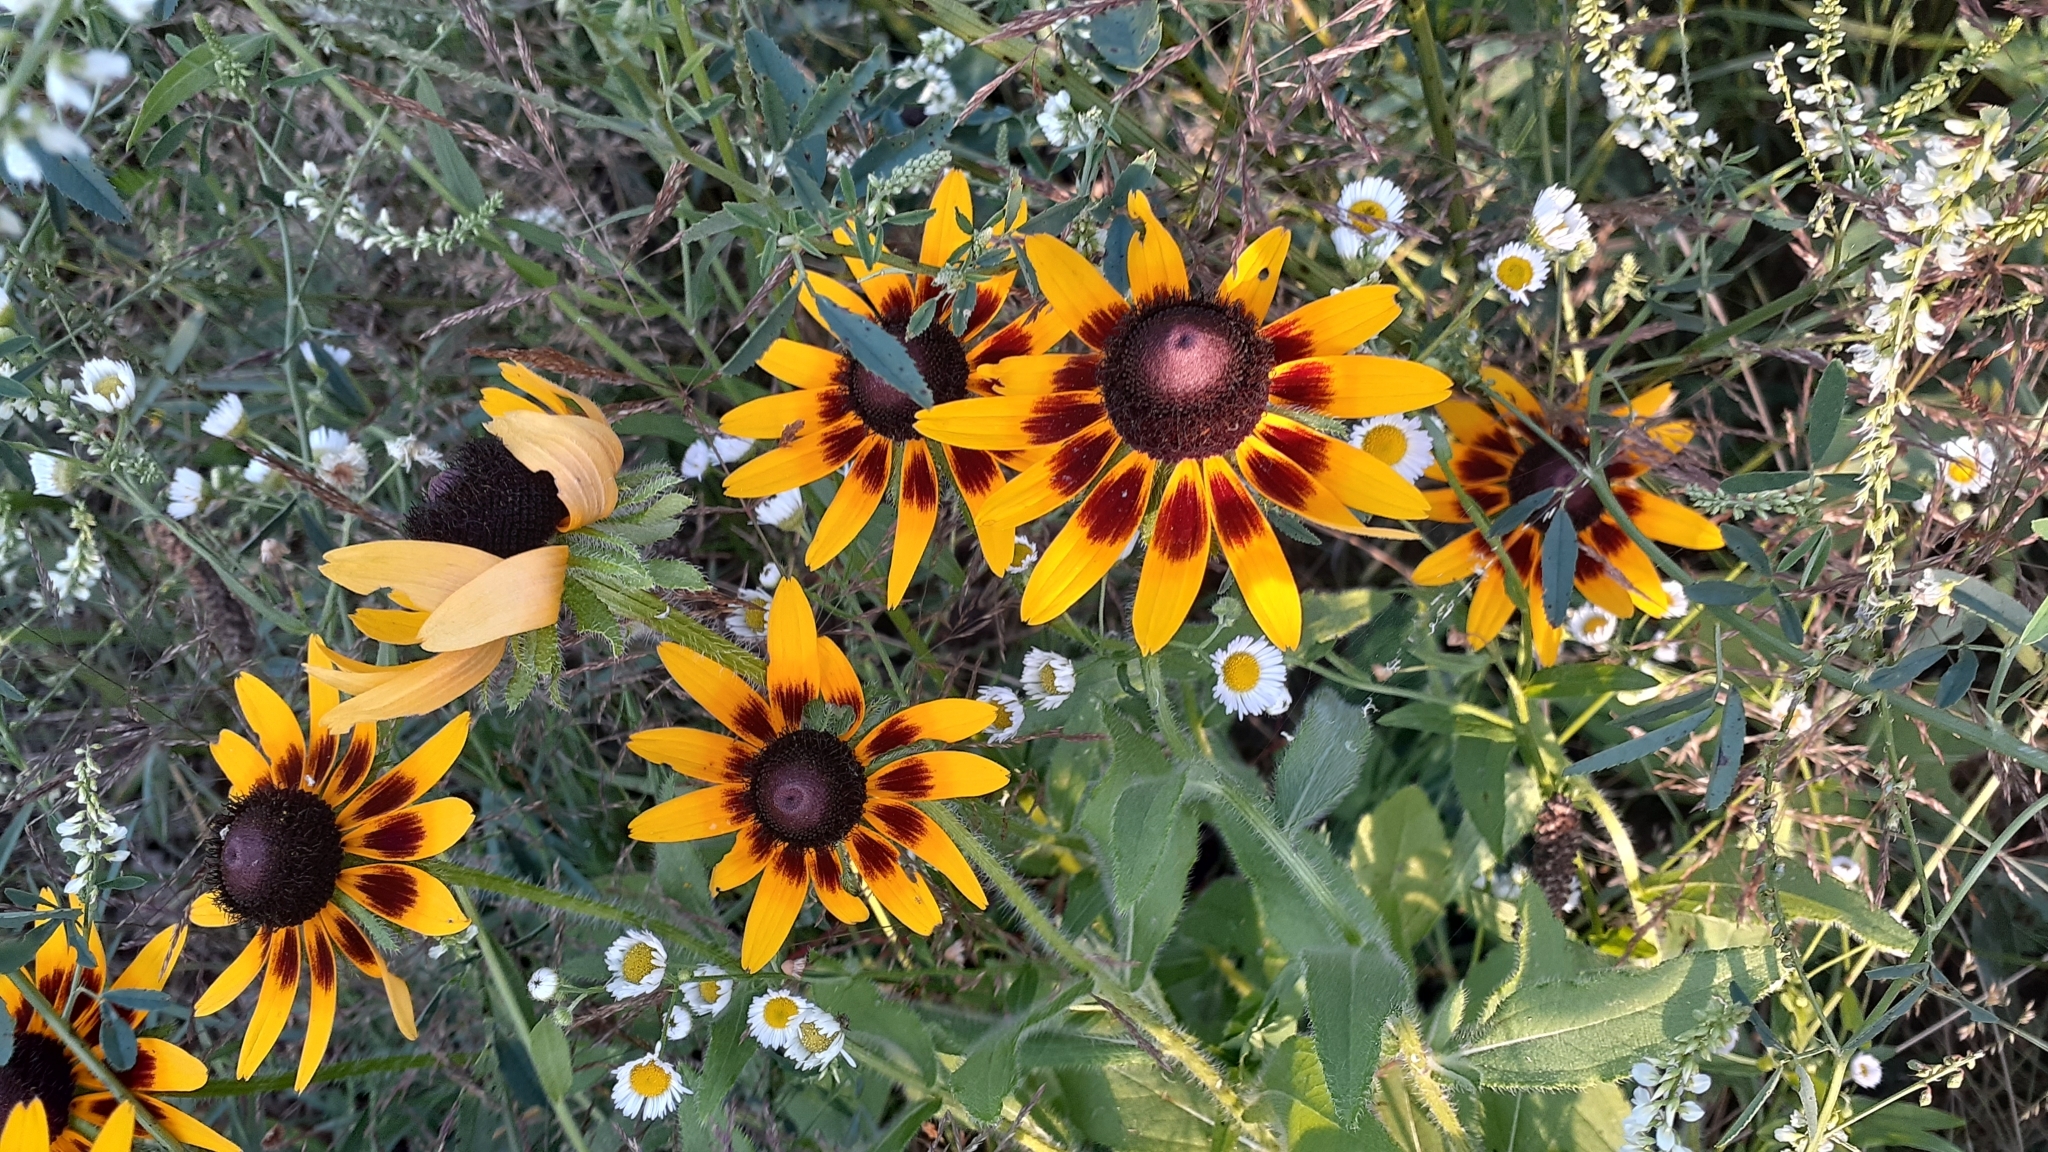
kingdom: Plantae
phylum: Tracheophyta
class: Magnoliopsida
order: Asterales
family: Asteraceae
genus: Rudbeckia
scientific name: Rudbeckia hirta
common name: Black-eyed-susan
